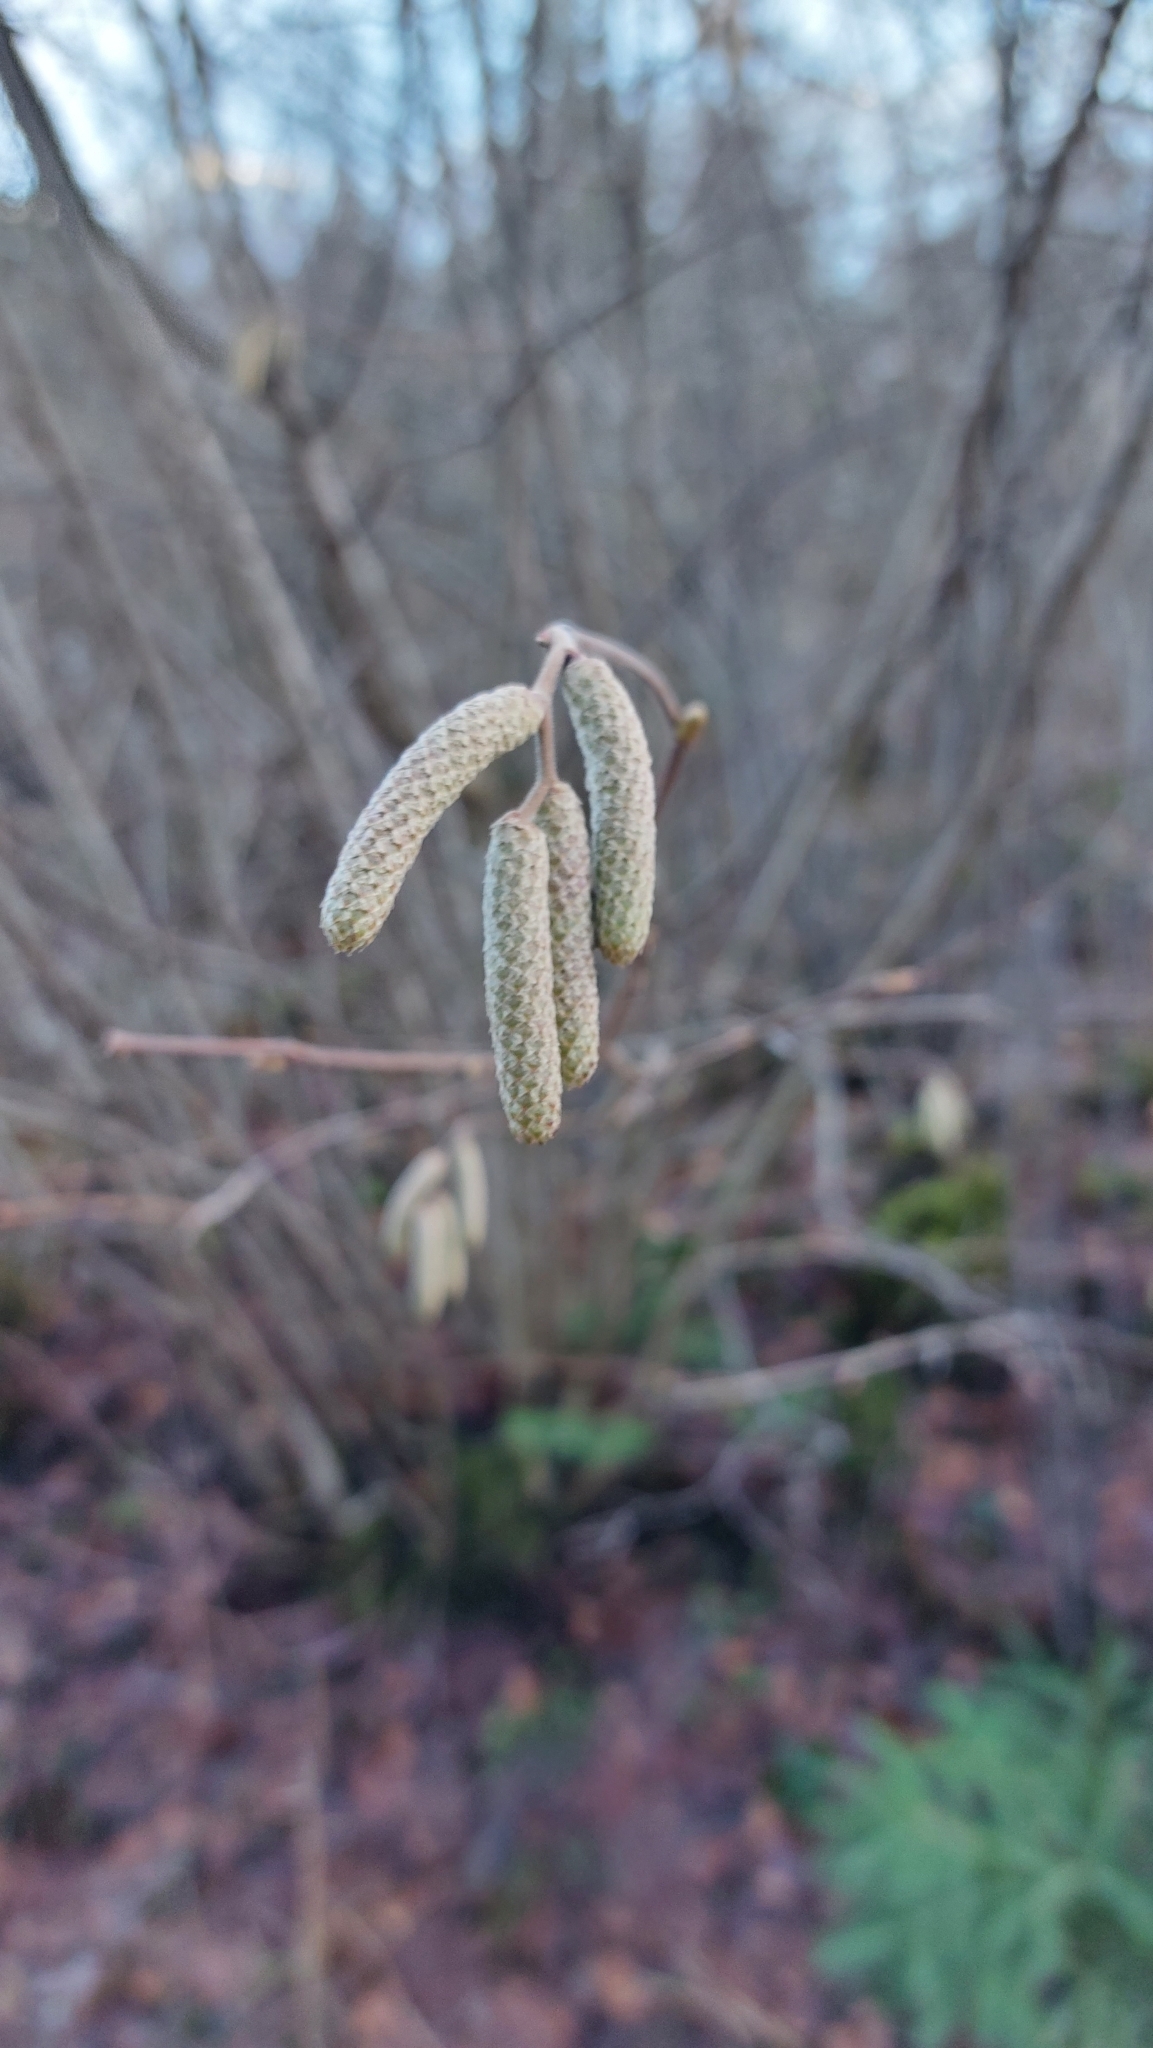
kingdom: Plantae
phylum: Tracheophyta
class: Magnoliopsida
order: Fagales
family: Betulaceae
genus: Corylus
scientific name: Corylus avellana
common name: European hazel
